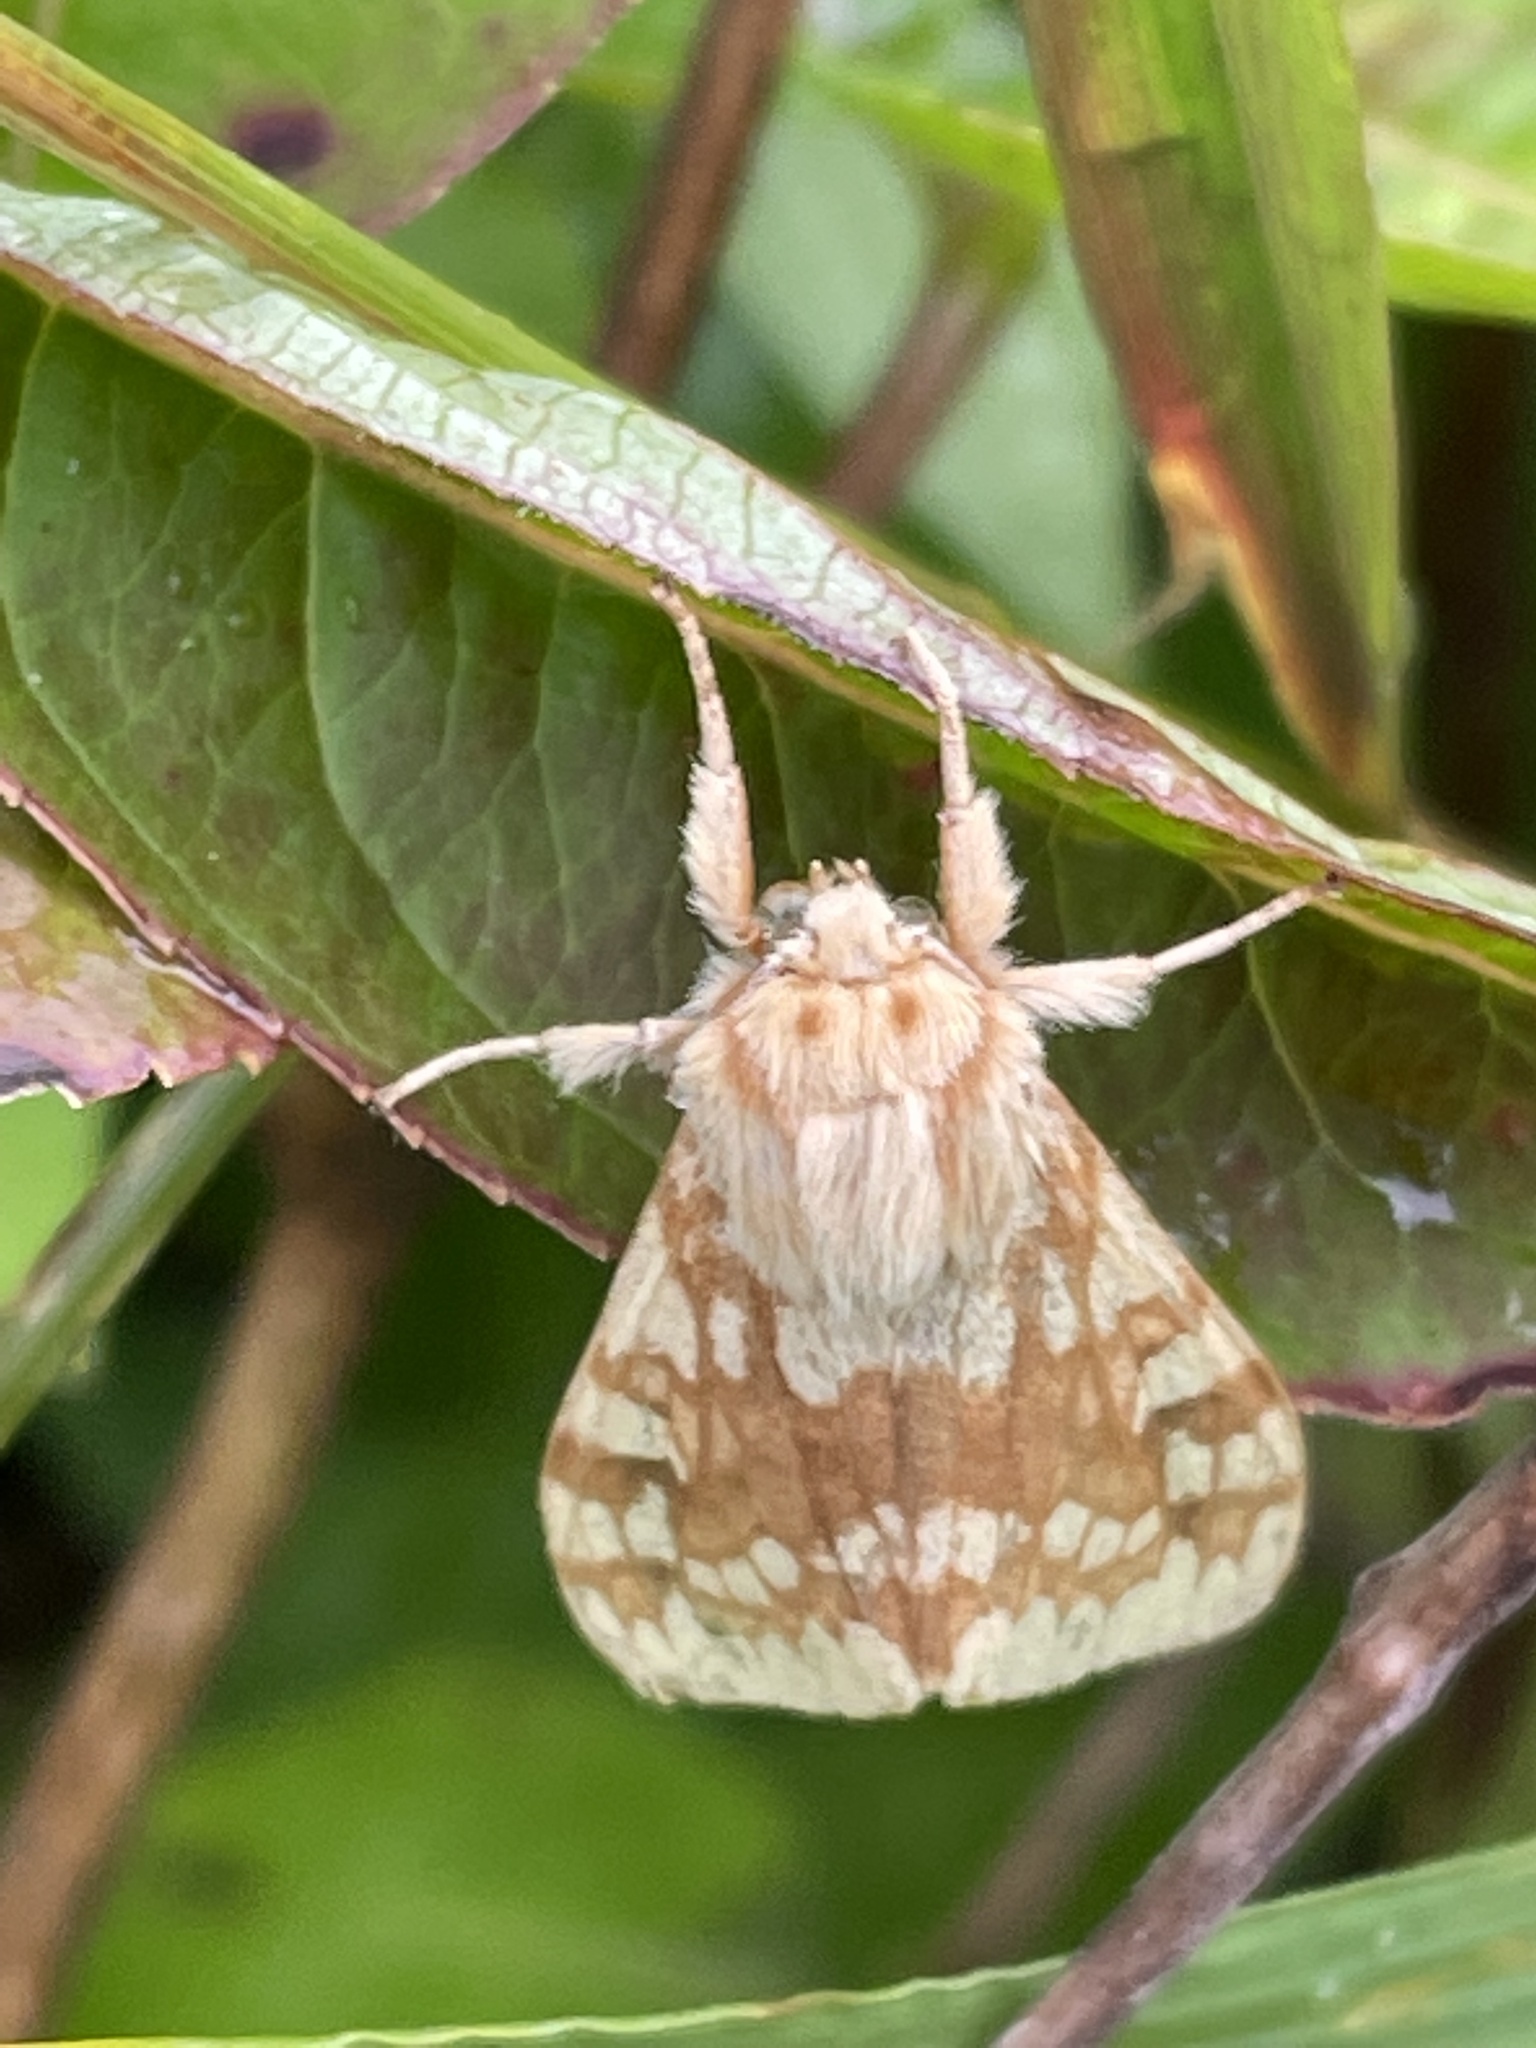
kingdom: Animalia
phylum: Arthropoda
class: Insecta
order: Lepidoptera
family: Erebidae
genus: Lophocampa
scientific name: Lophocampa maculata
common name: Spotted tussock moth
